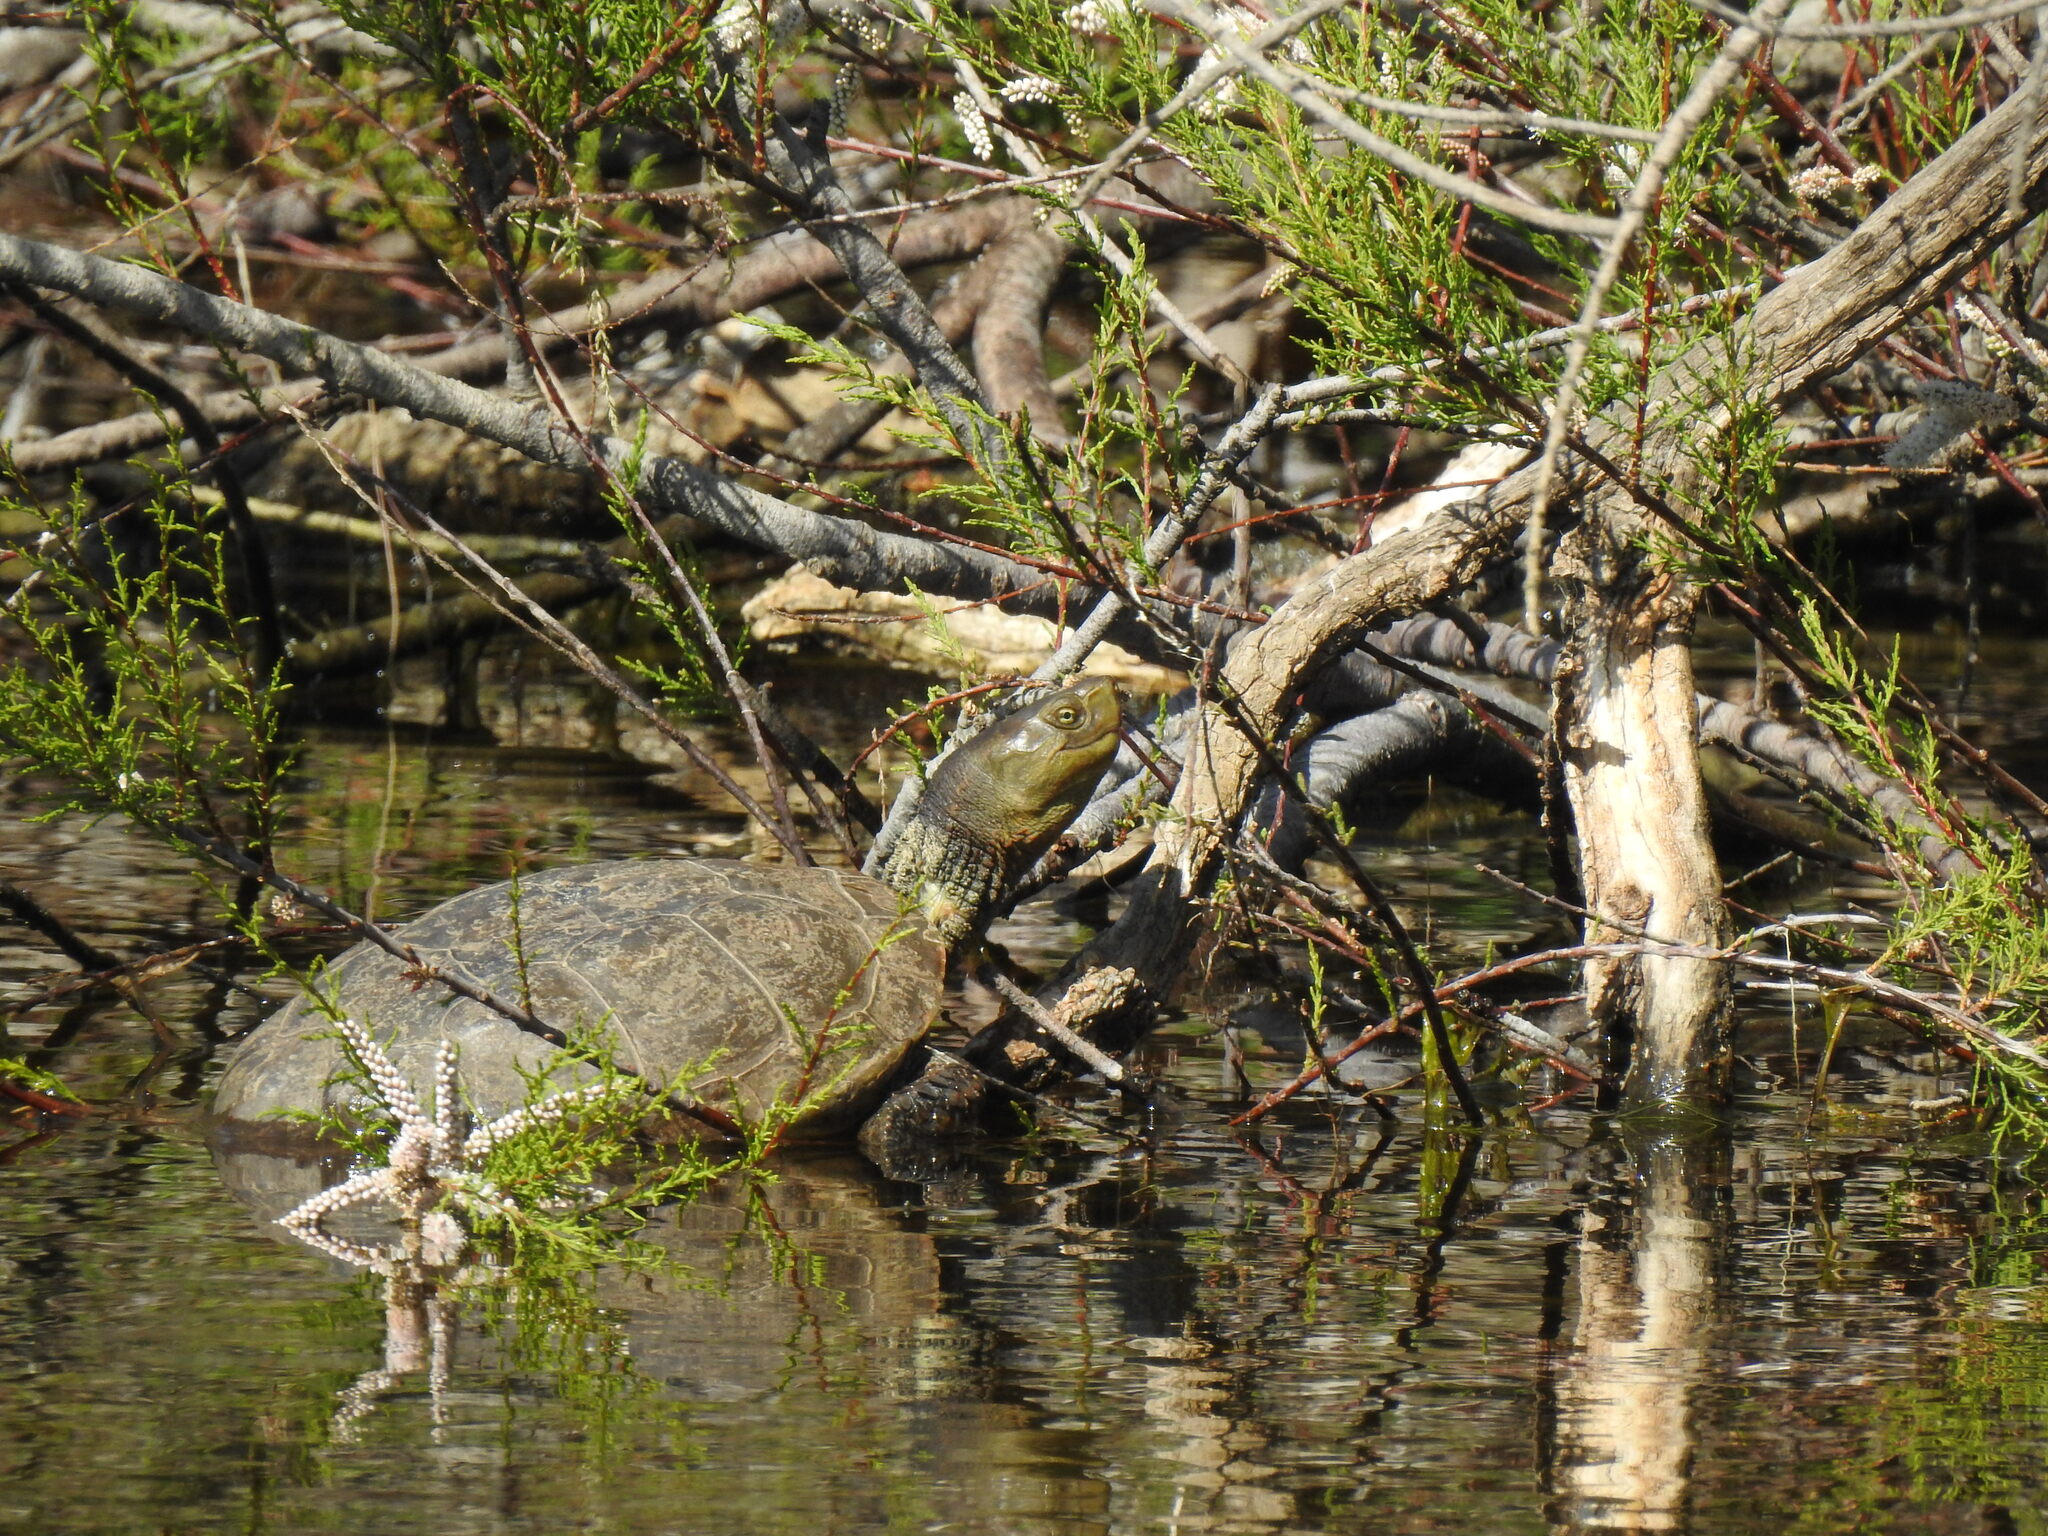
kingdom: Animalia
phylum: Chordata
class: Testudines
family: Geoemydidae
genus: Mauremys
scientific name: Mauremys leprosa
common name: Mediterranean pond turtle
